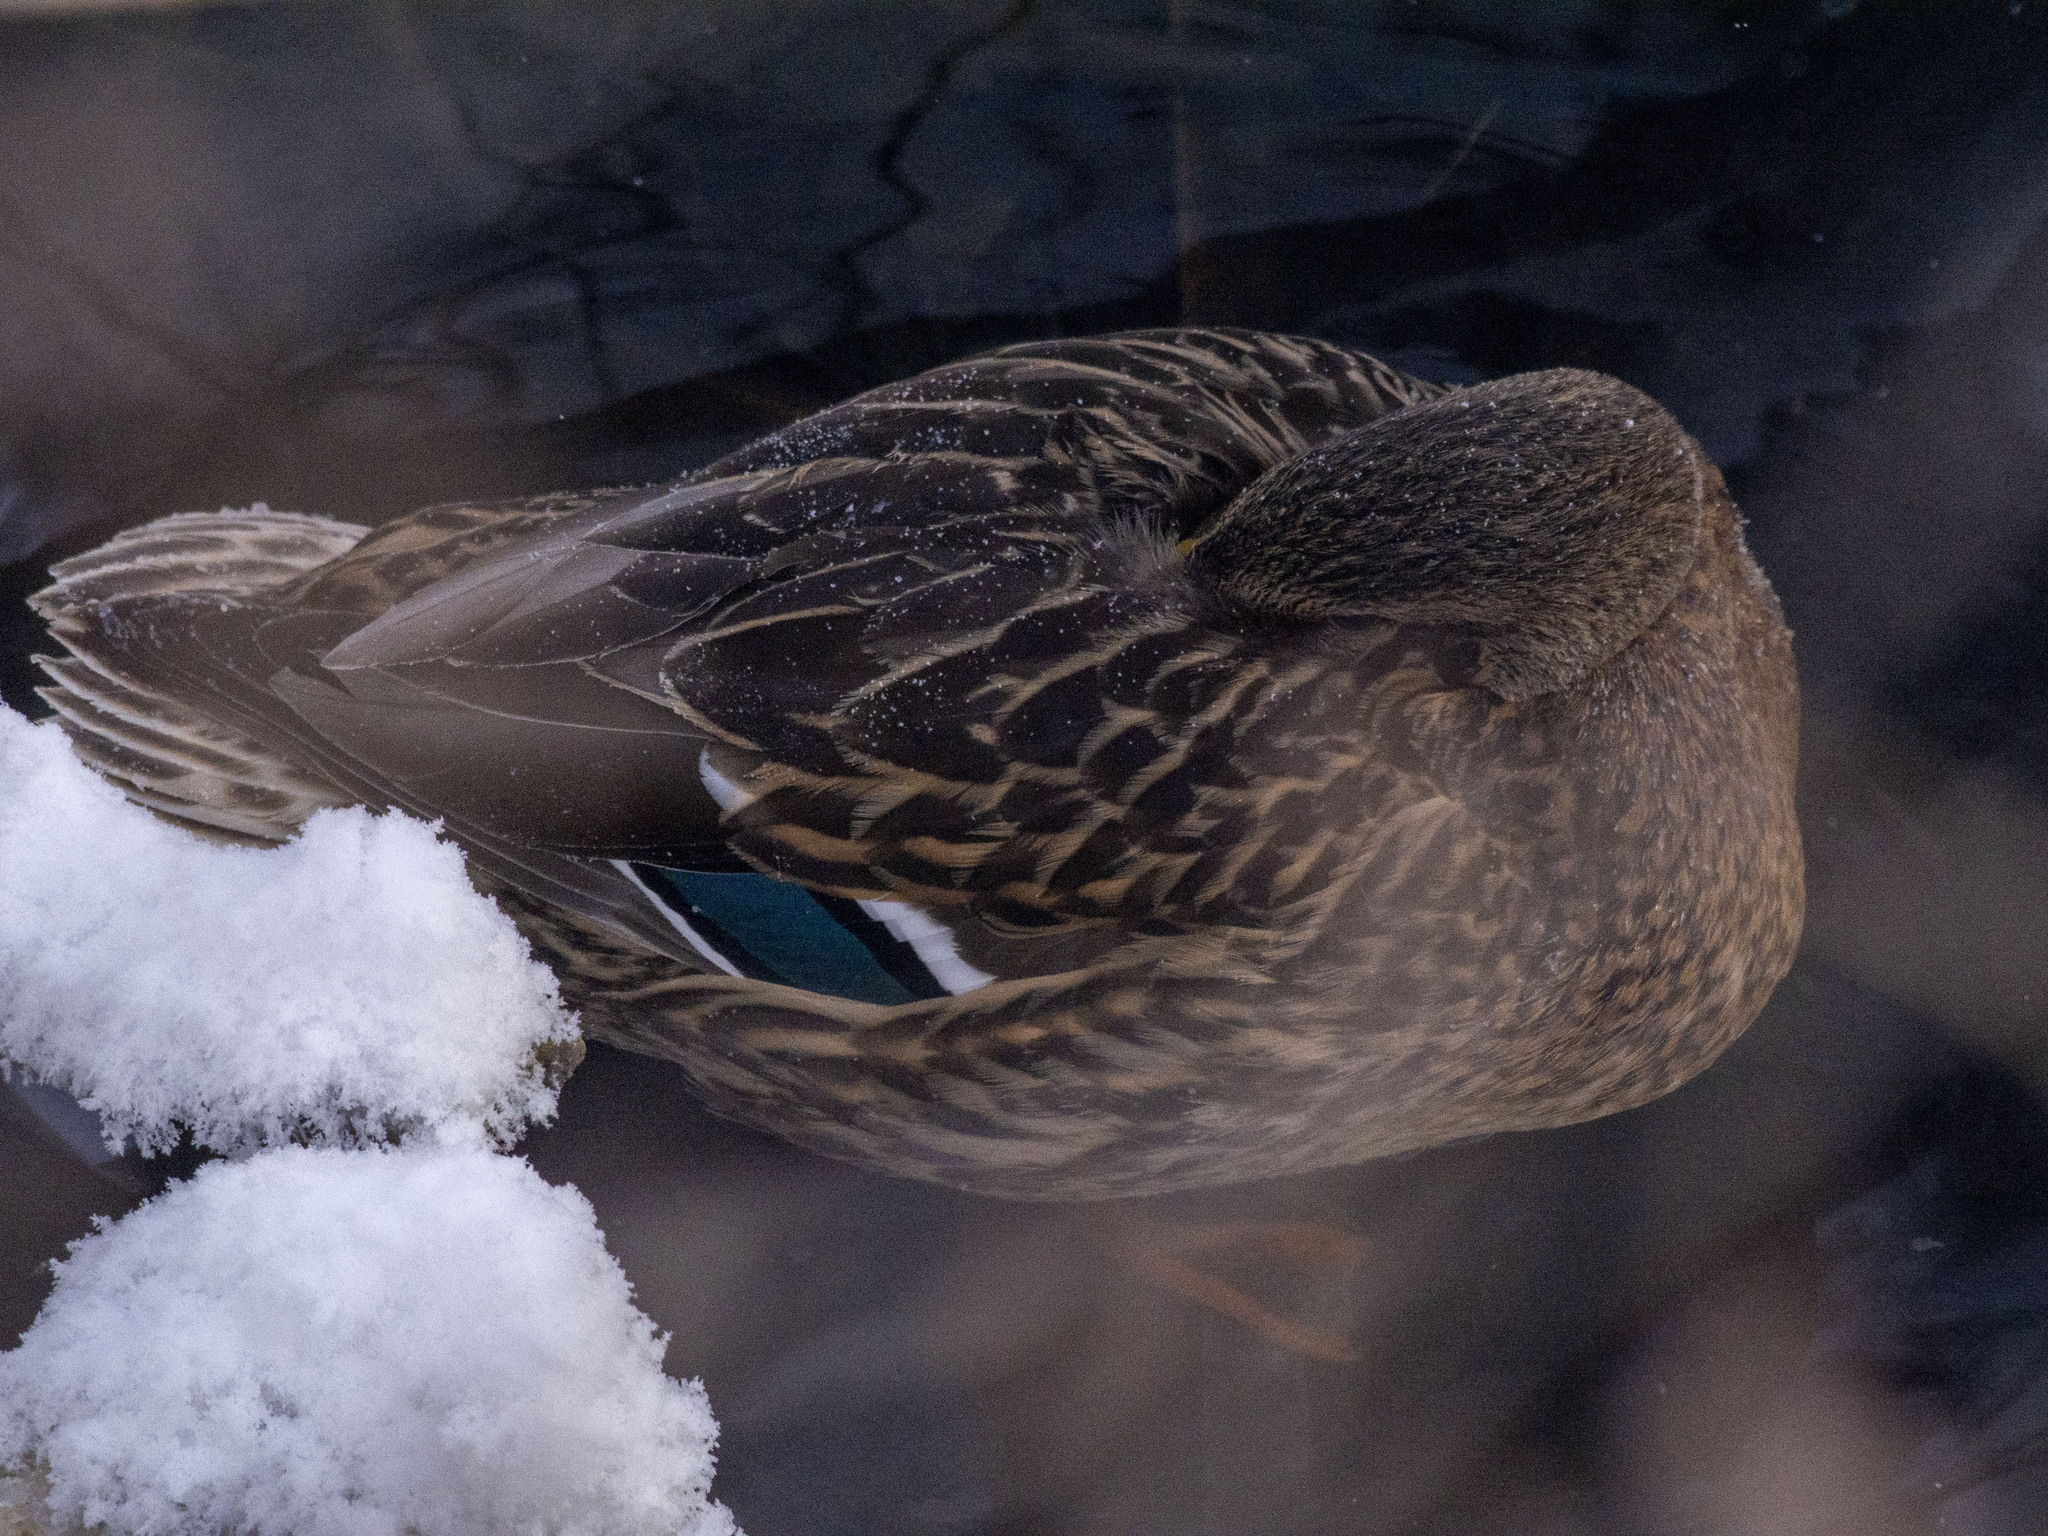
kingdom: Animalia
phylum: Chordata
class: Aves
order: Anseriformes
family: Anatidae
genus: Anas
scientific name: Anas platyrhynchos
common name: Mallard
